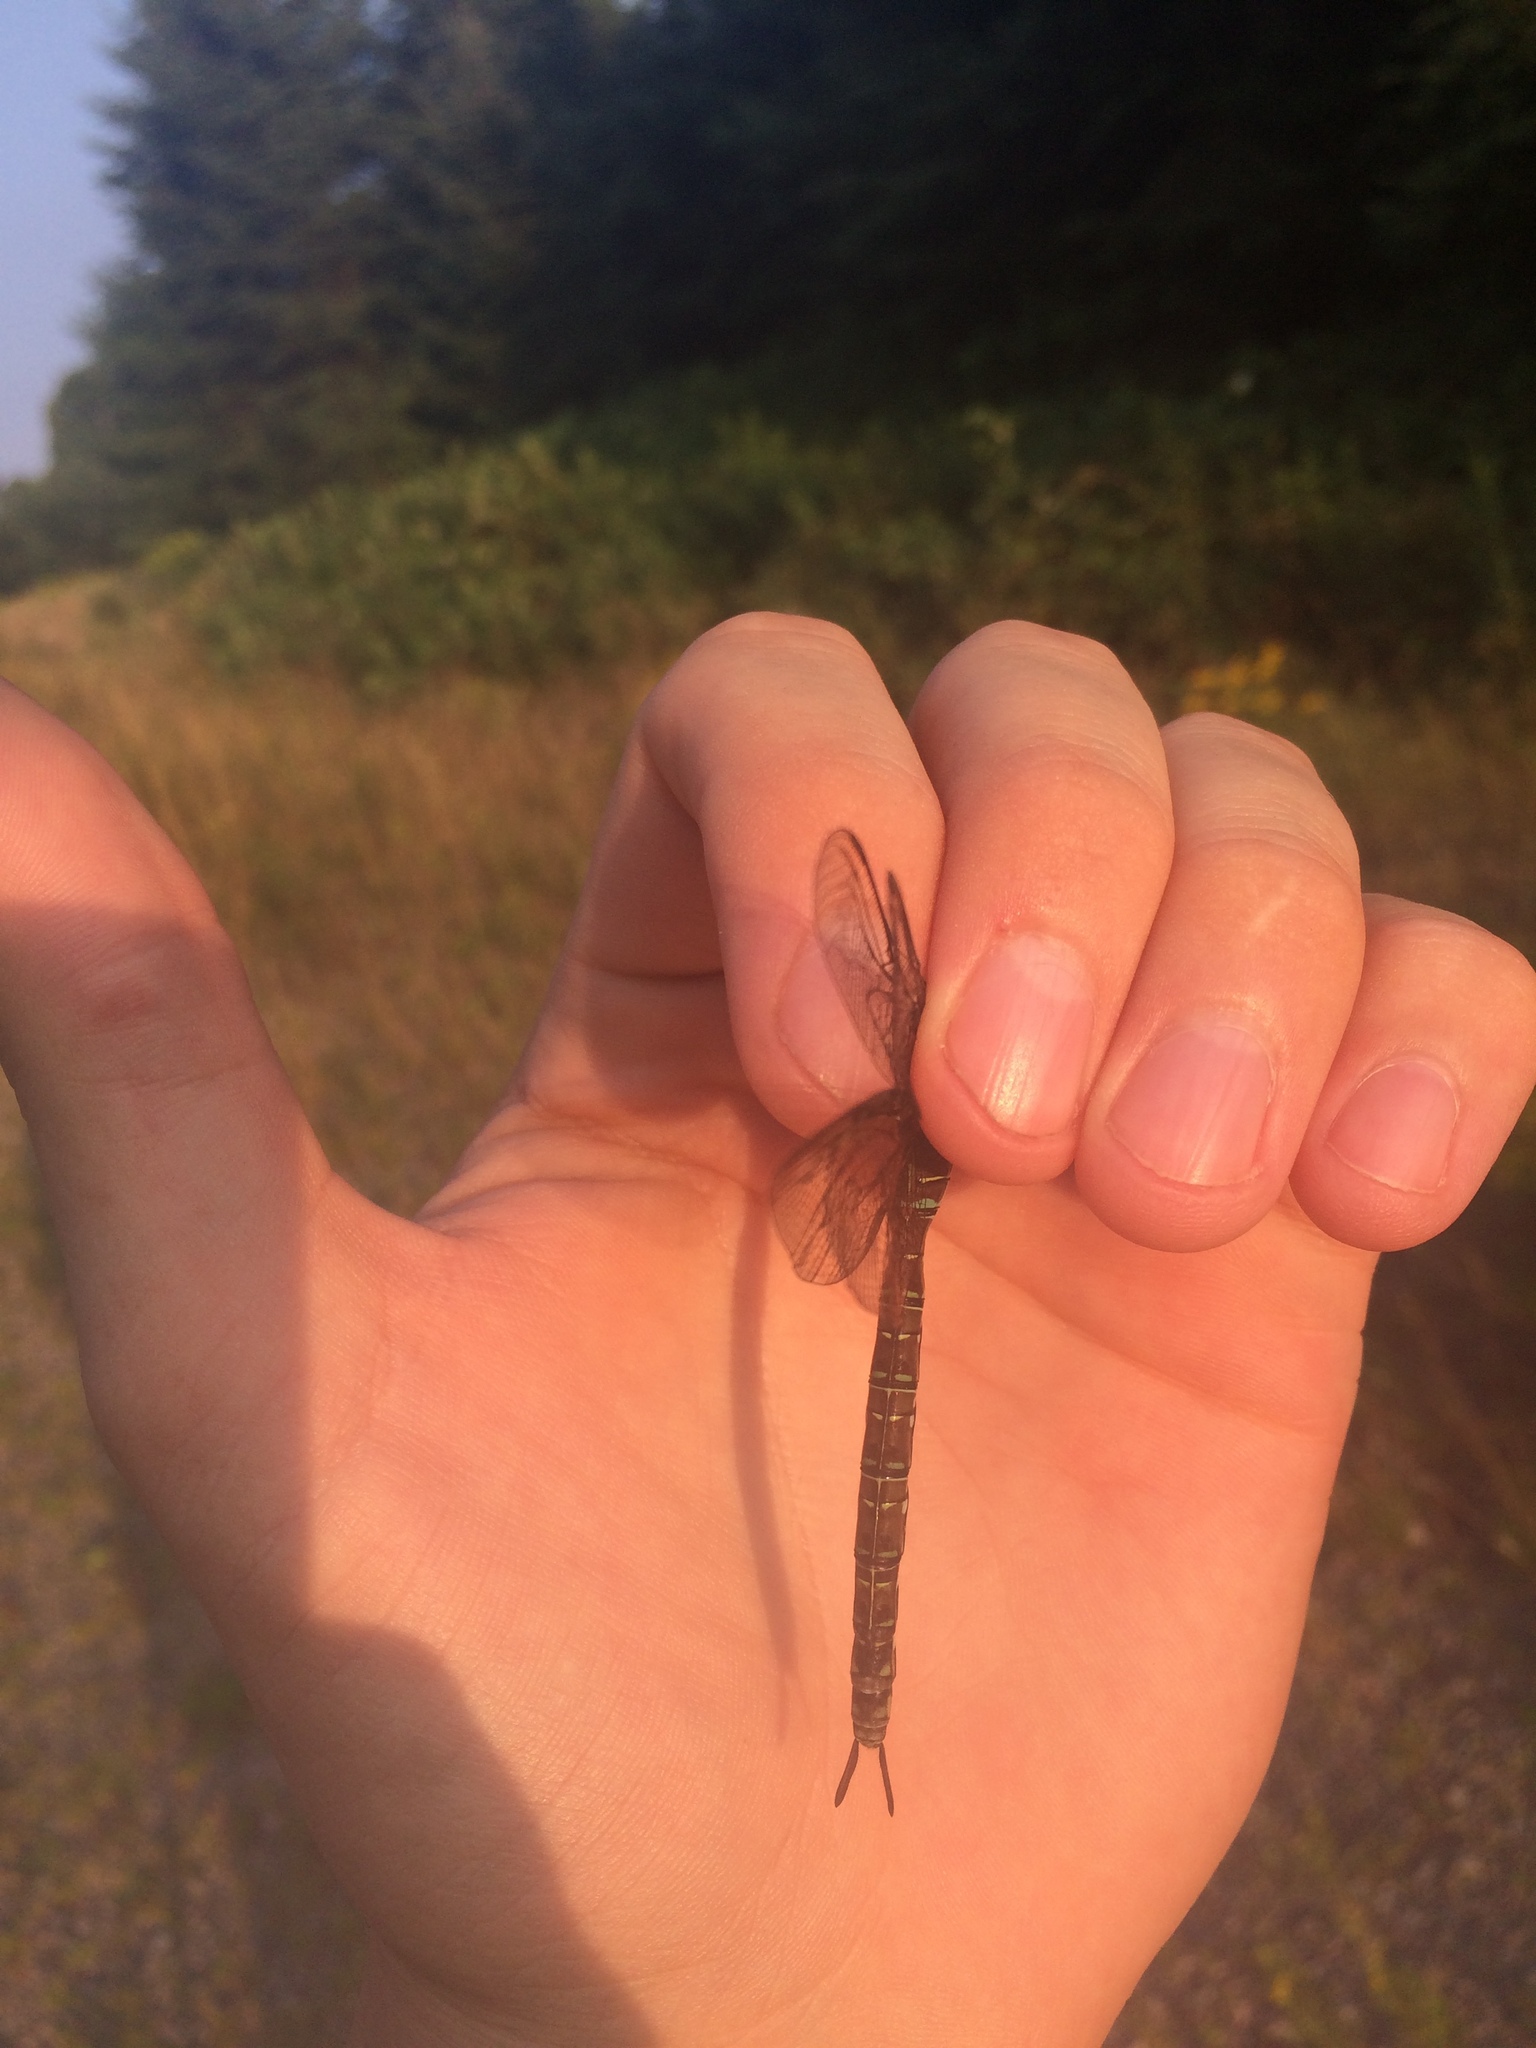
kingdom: Animalia
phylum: Arthropoda
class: Insecta
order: Odonata
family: Aeshnidae
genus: Aeshna
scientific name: Aeshna umbrosa
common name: Shadow darner
